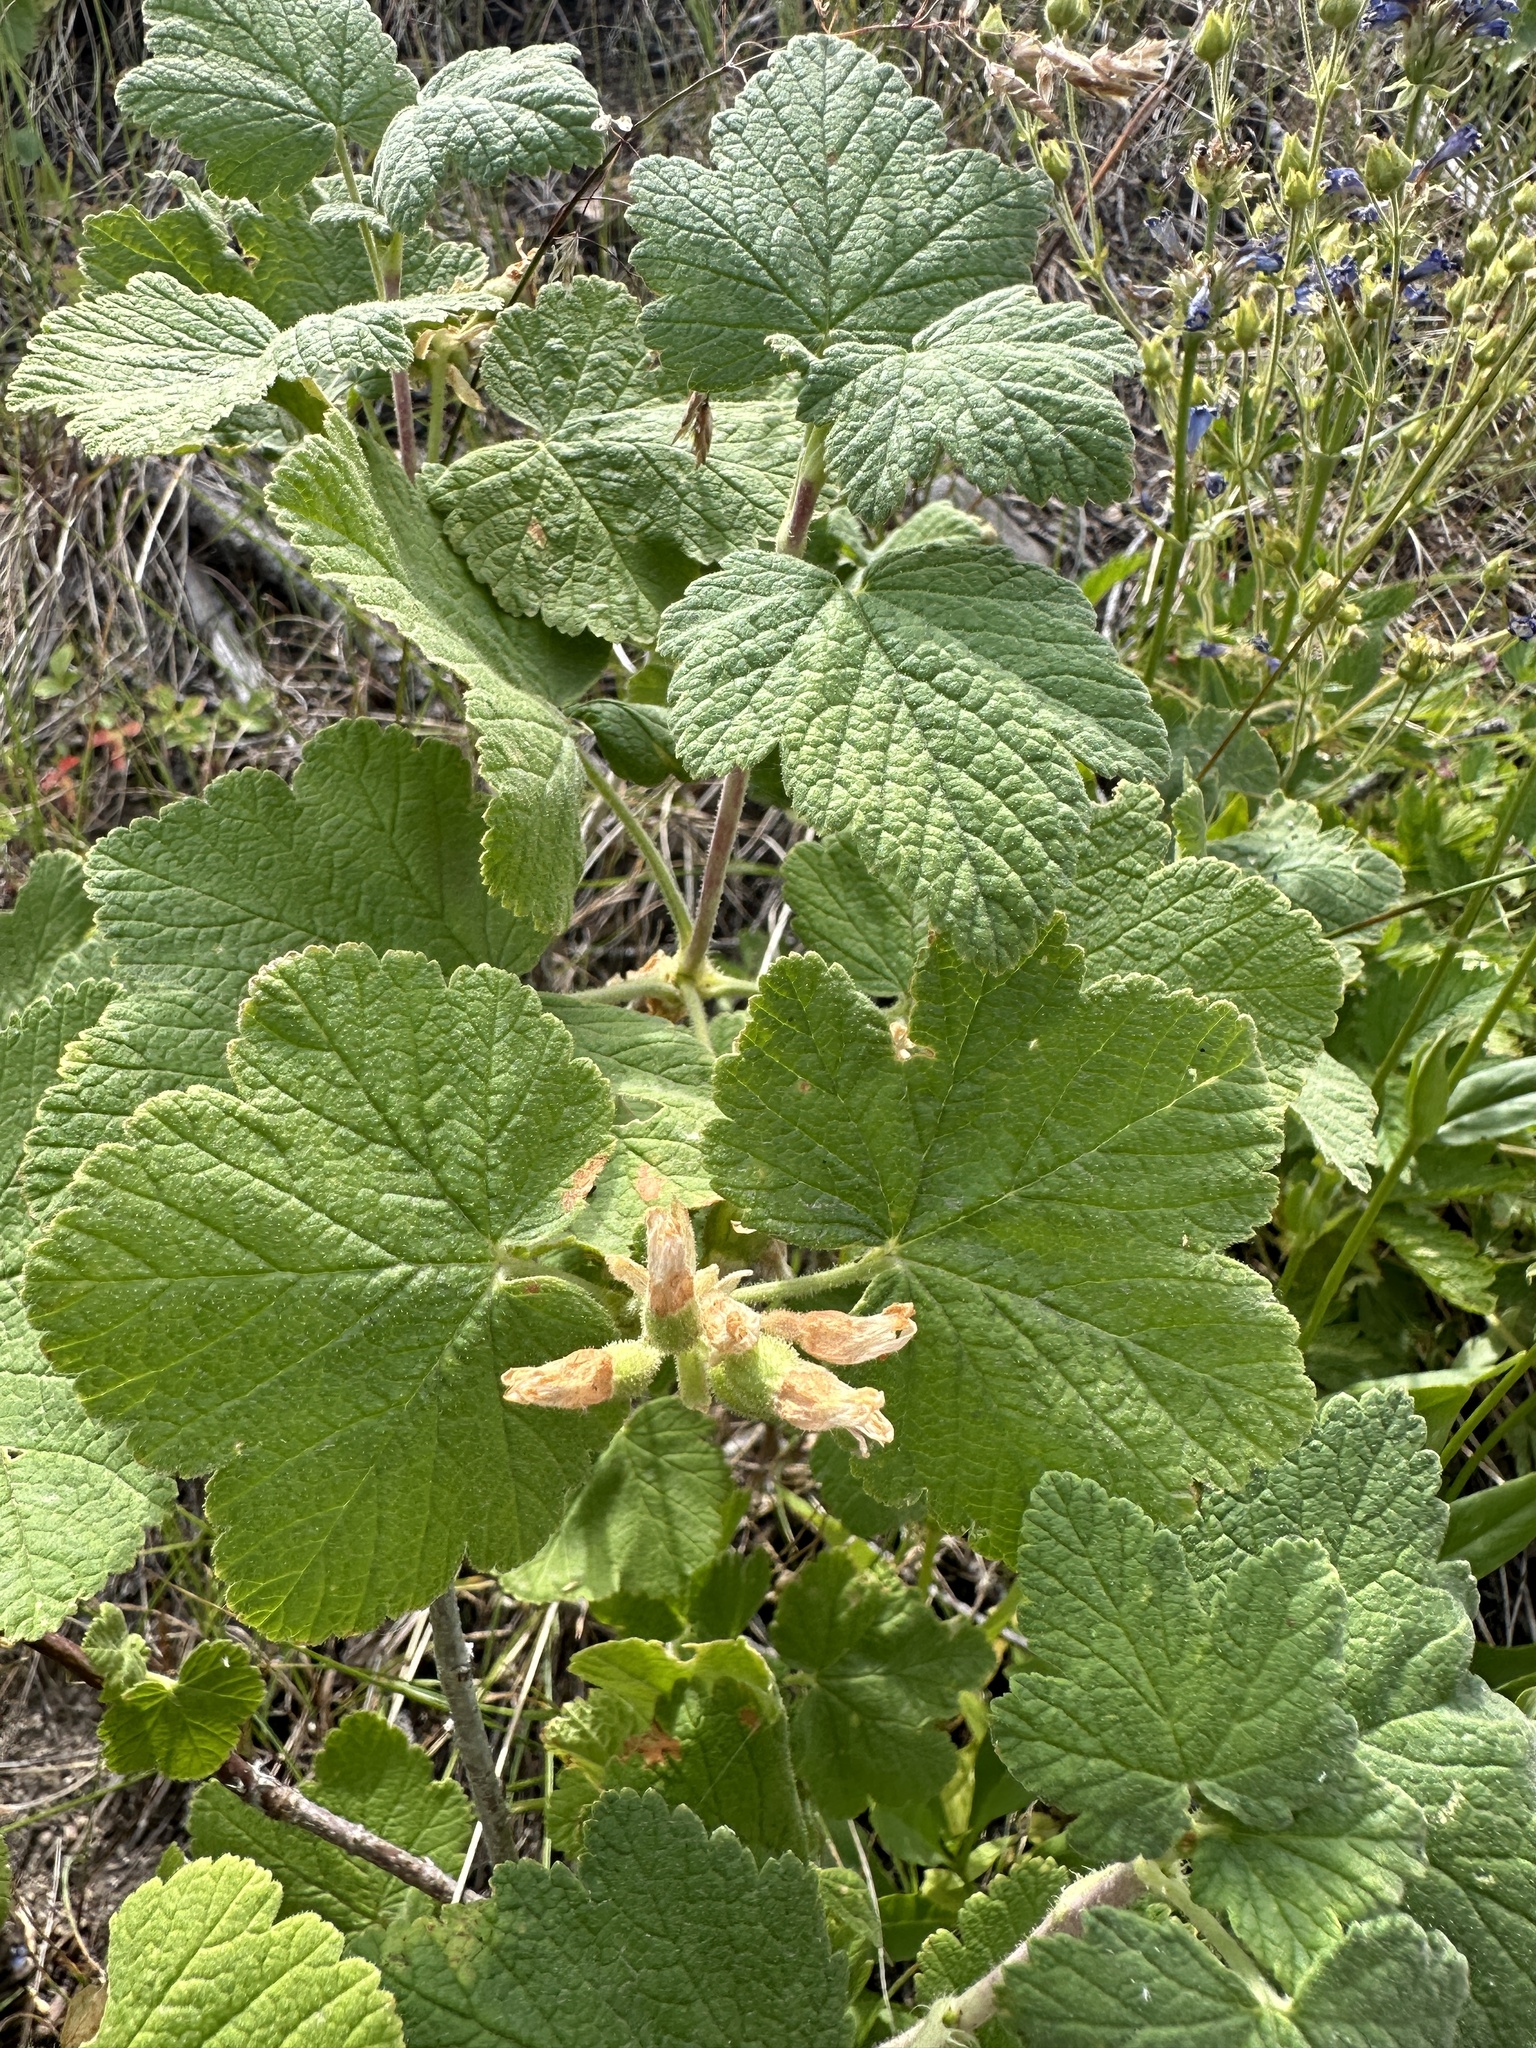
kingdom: Plantae
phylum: Tracheophyta
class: Magnoliopsida
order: Saxifragales
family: Grossulariaceae
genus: Ribes
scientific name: Ribes viscosissimum
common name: Sticky currant
